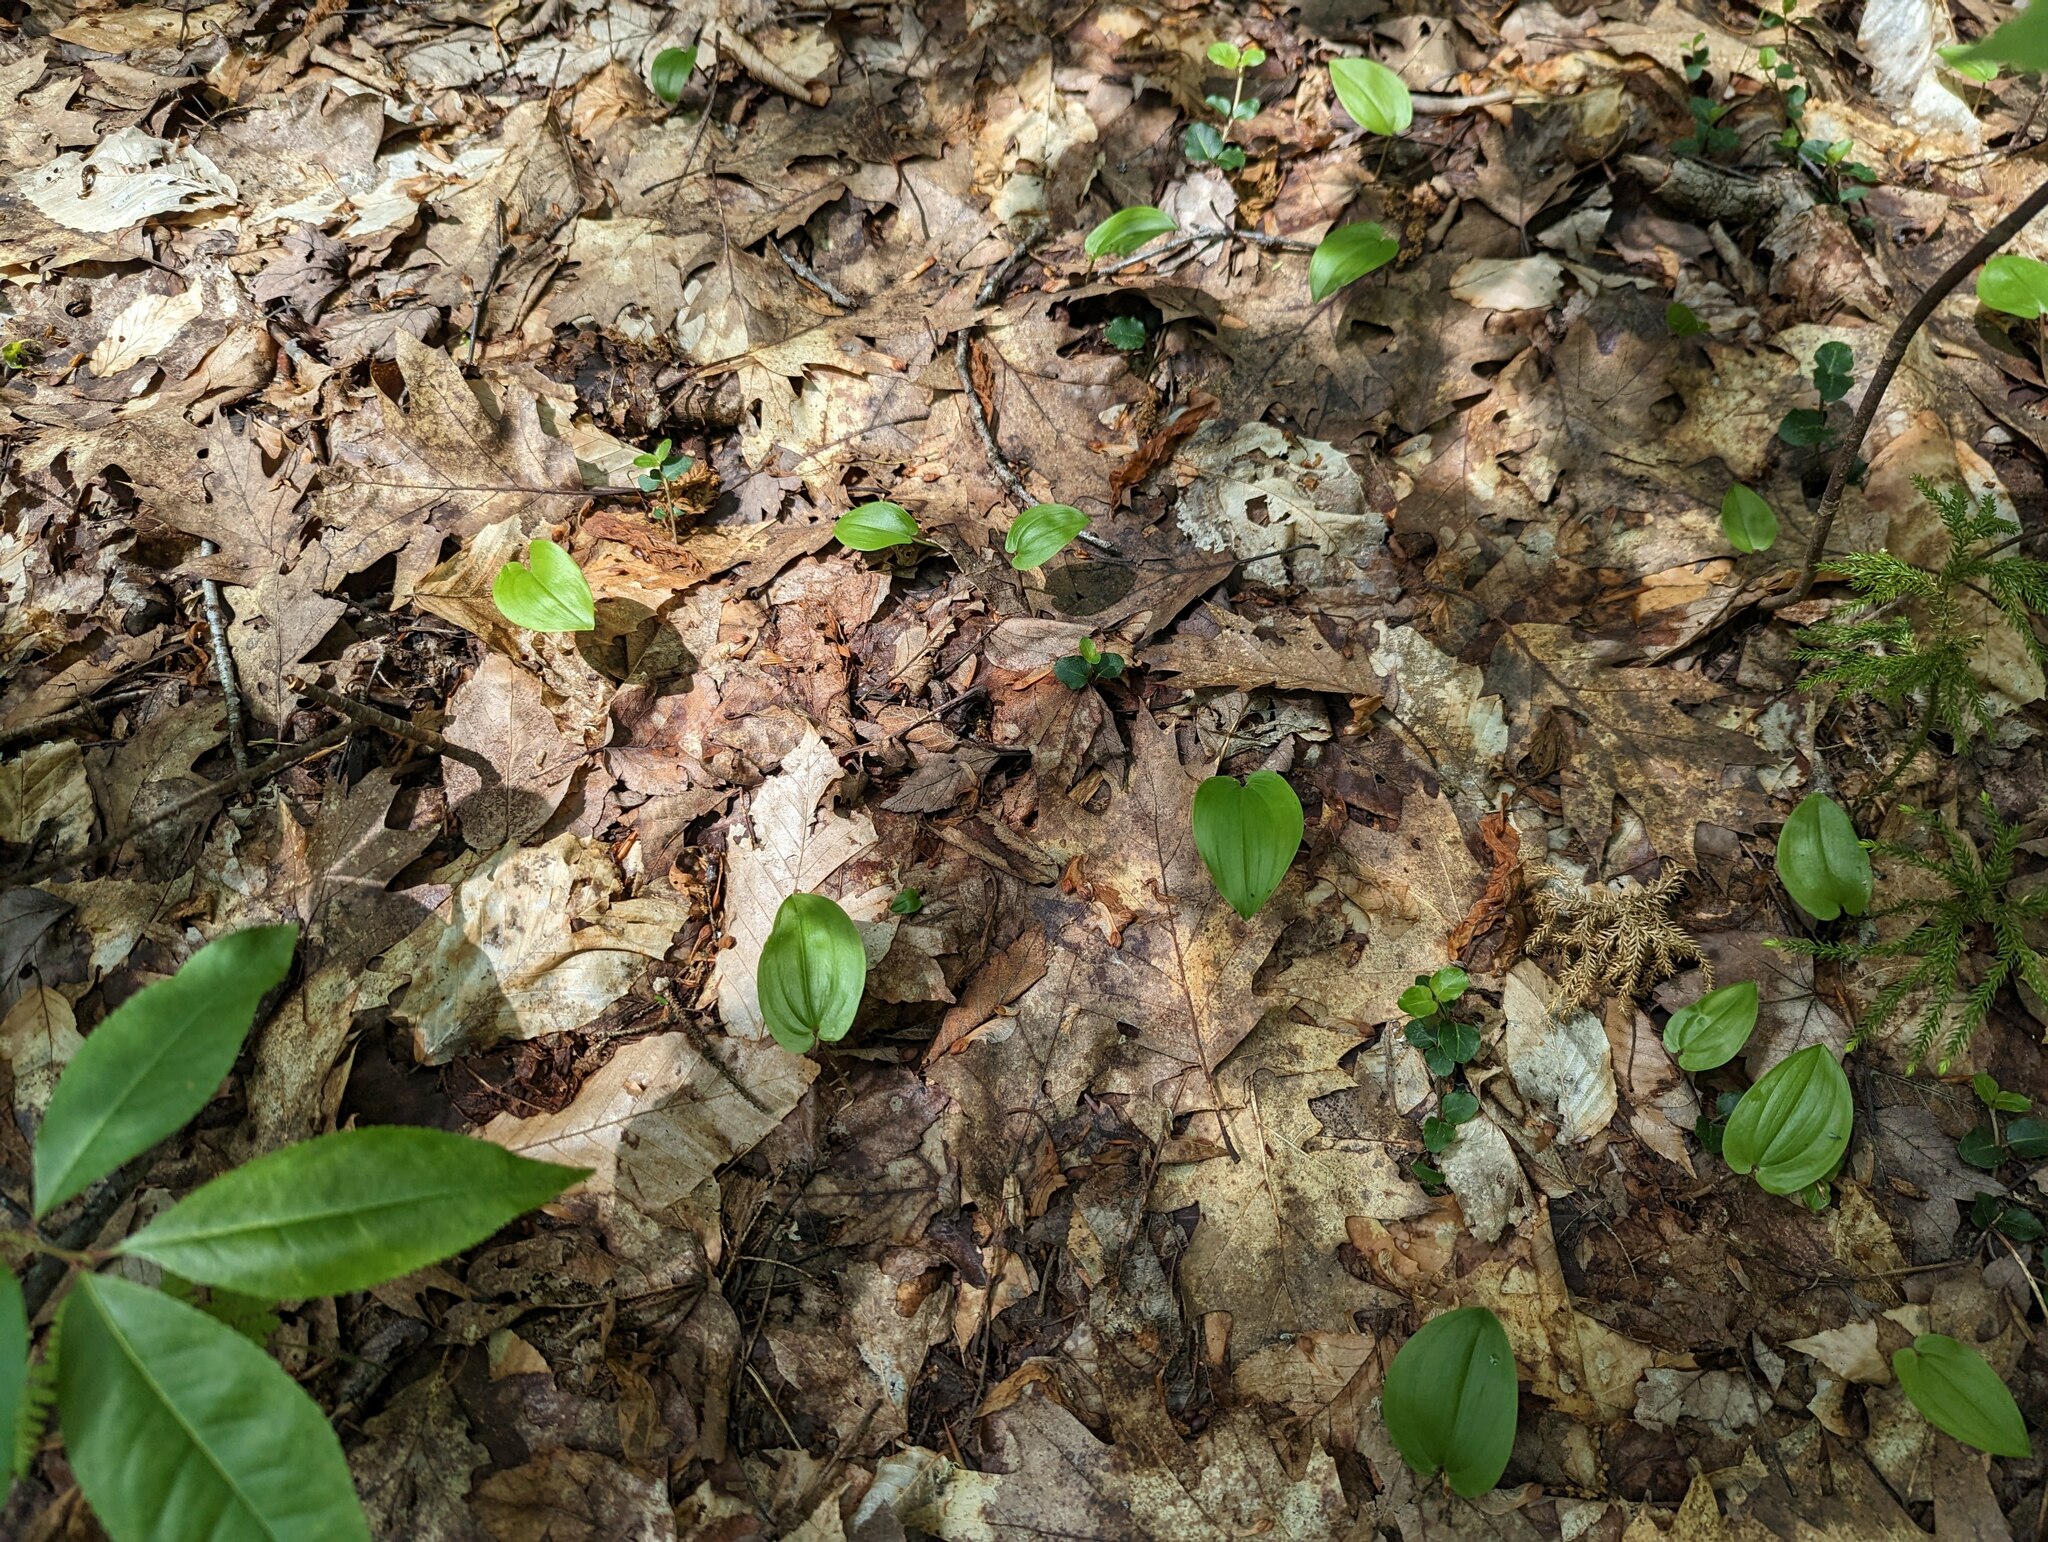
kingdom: Plantae
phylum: Tracheophyta
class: Liliopsida
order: Asparagales
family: Asparagaceae
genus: Maianthemum
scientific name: Maianthemum canadense
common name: False lily-of-the-valley
